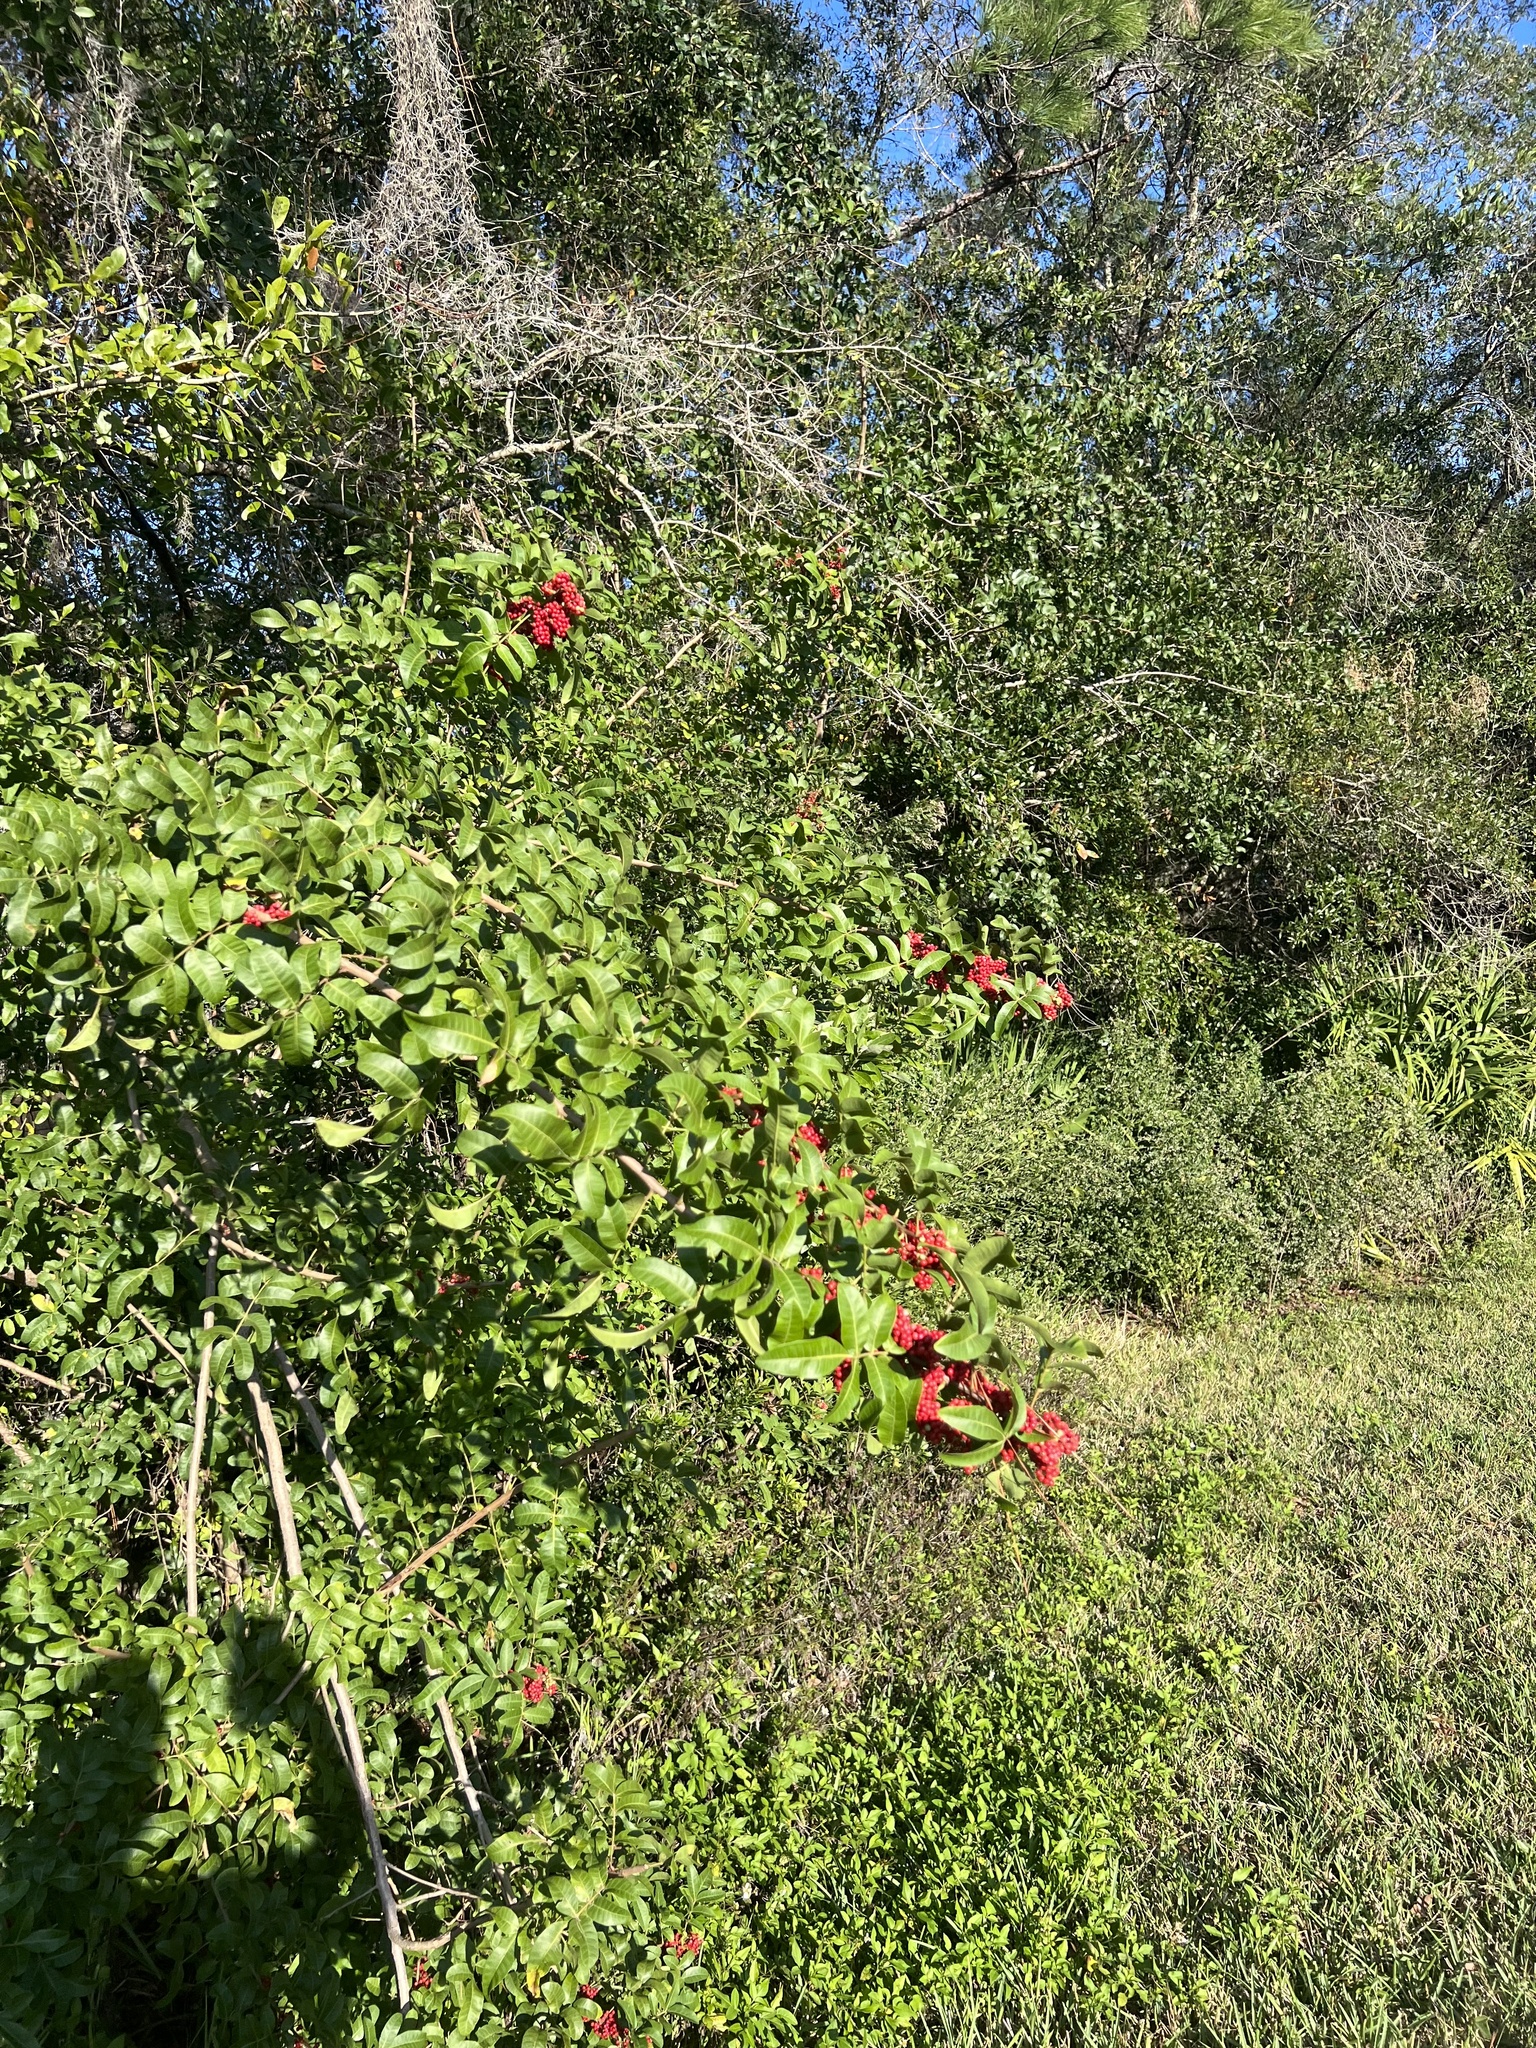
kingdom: Plantae
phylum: Tracheophyta
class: Magnoliopsida
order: Sapindales
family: Anacardiaceae
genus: Schinus
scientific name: Schinus terebinthifolia
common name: Brazilian peppertree
